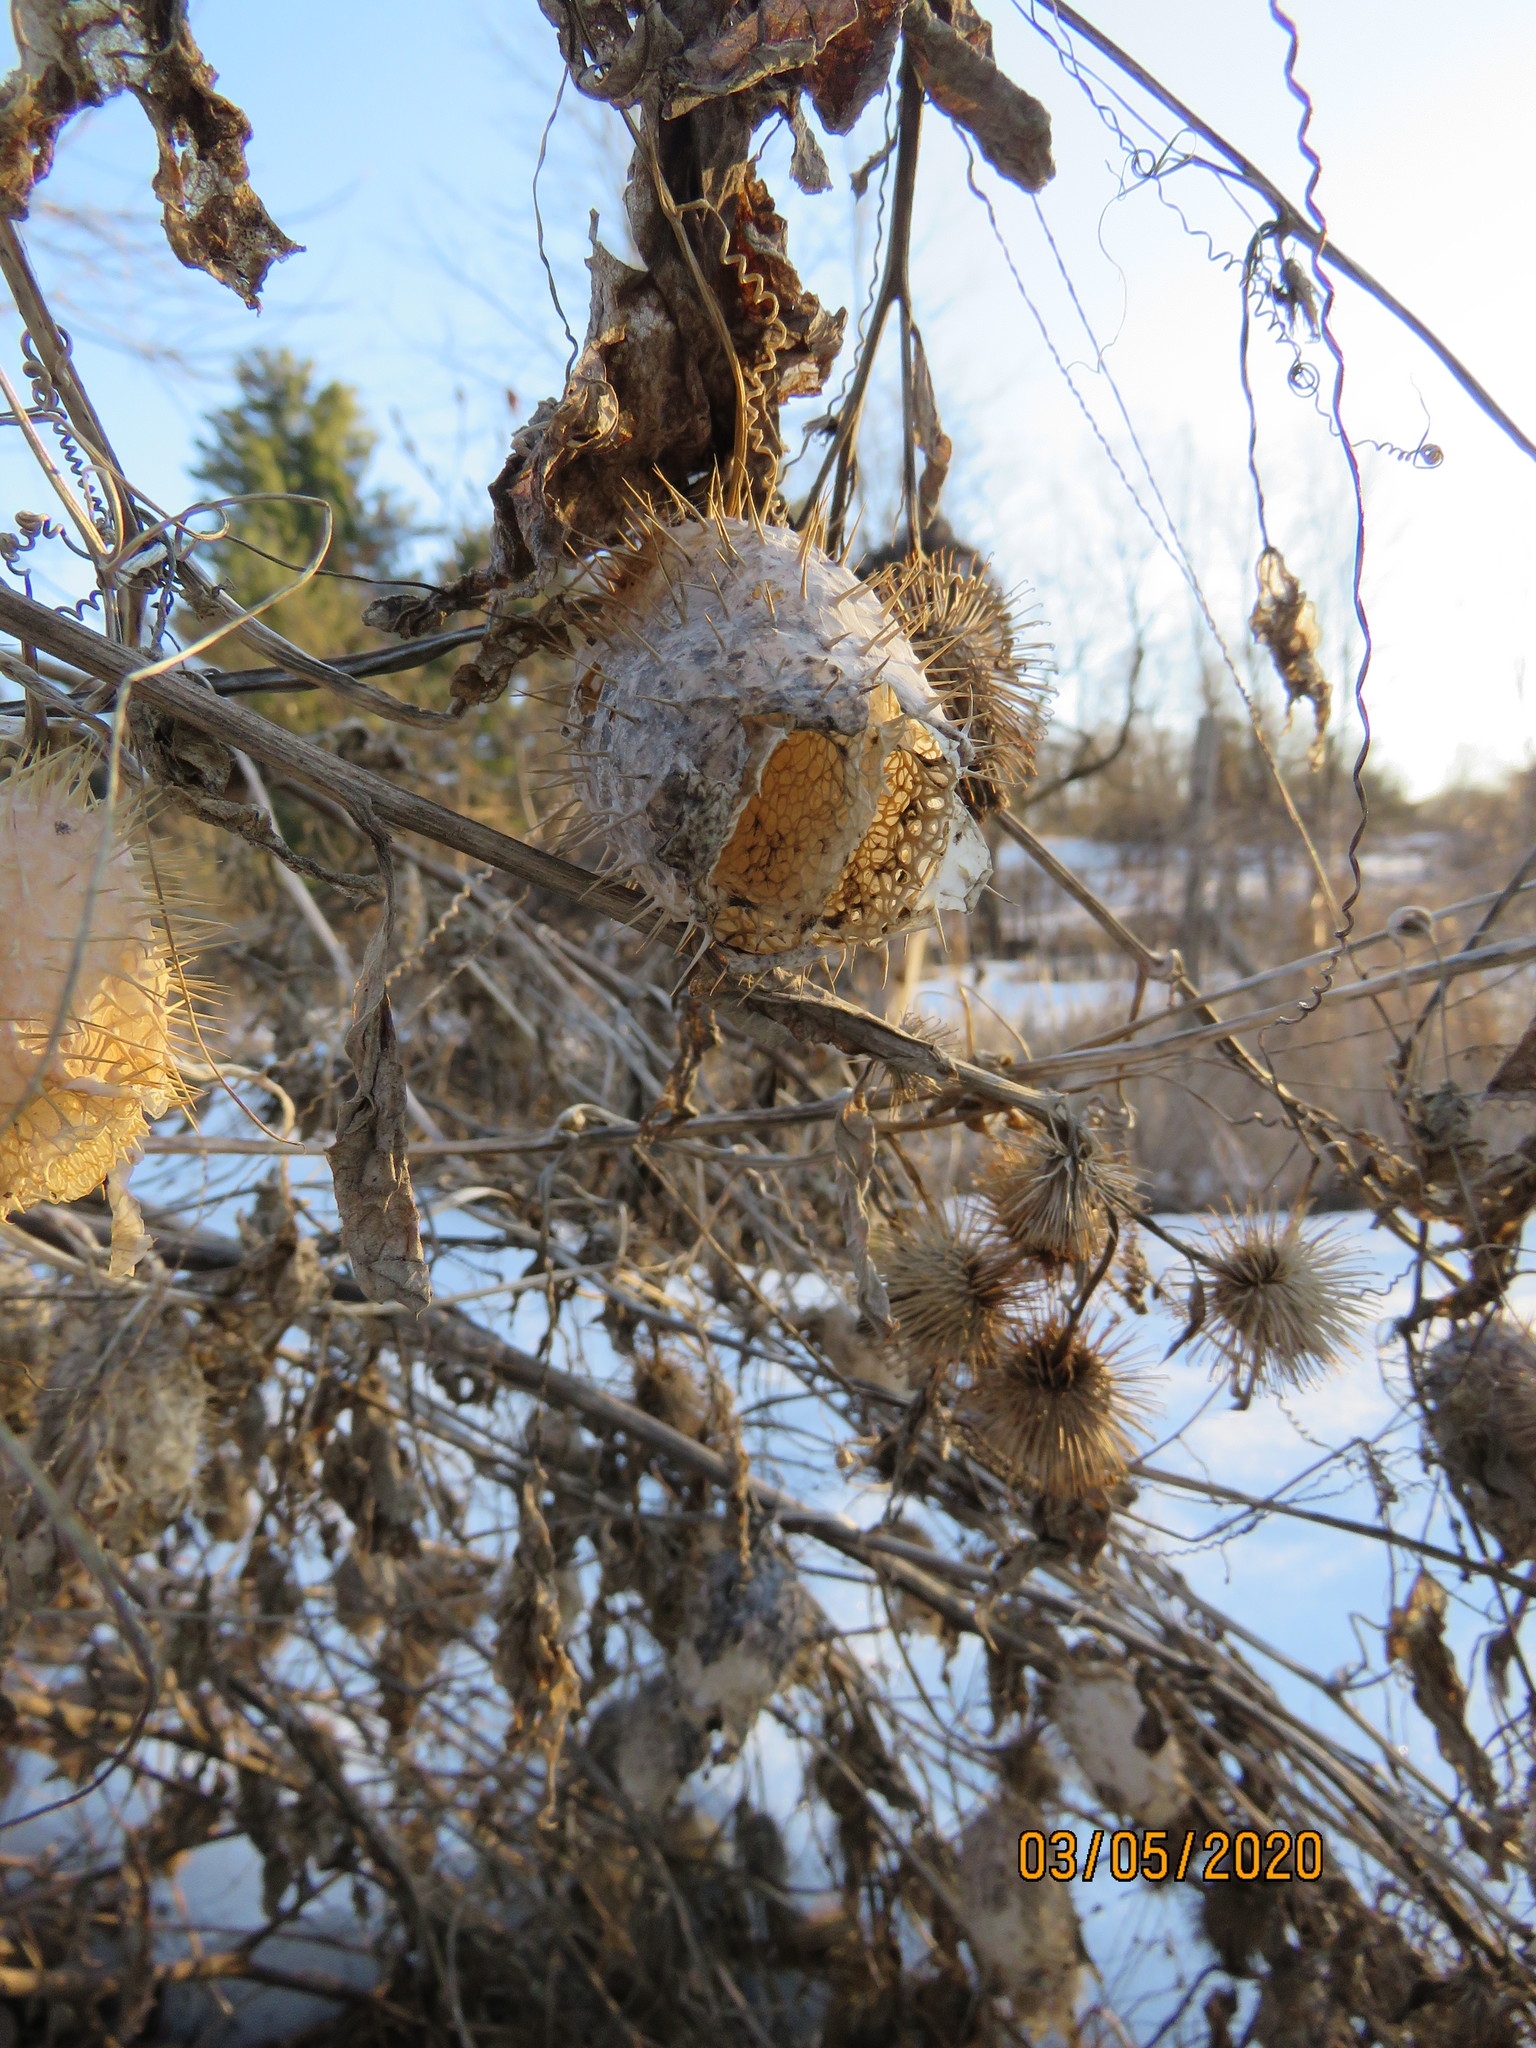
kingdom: Plantae
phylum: Tracheophyta
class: Magnoliopsida
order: Cucurbitales
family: Cucurbitaceae
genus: Echinocystis
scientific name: Echinocystis lobata
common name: Wild cucumber
